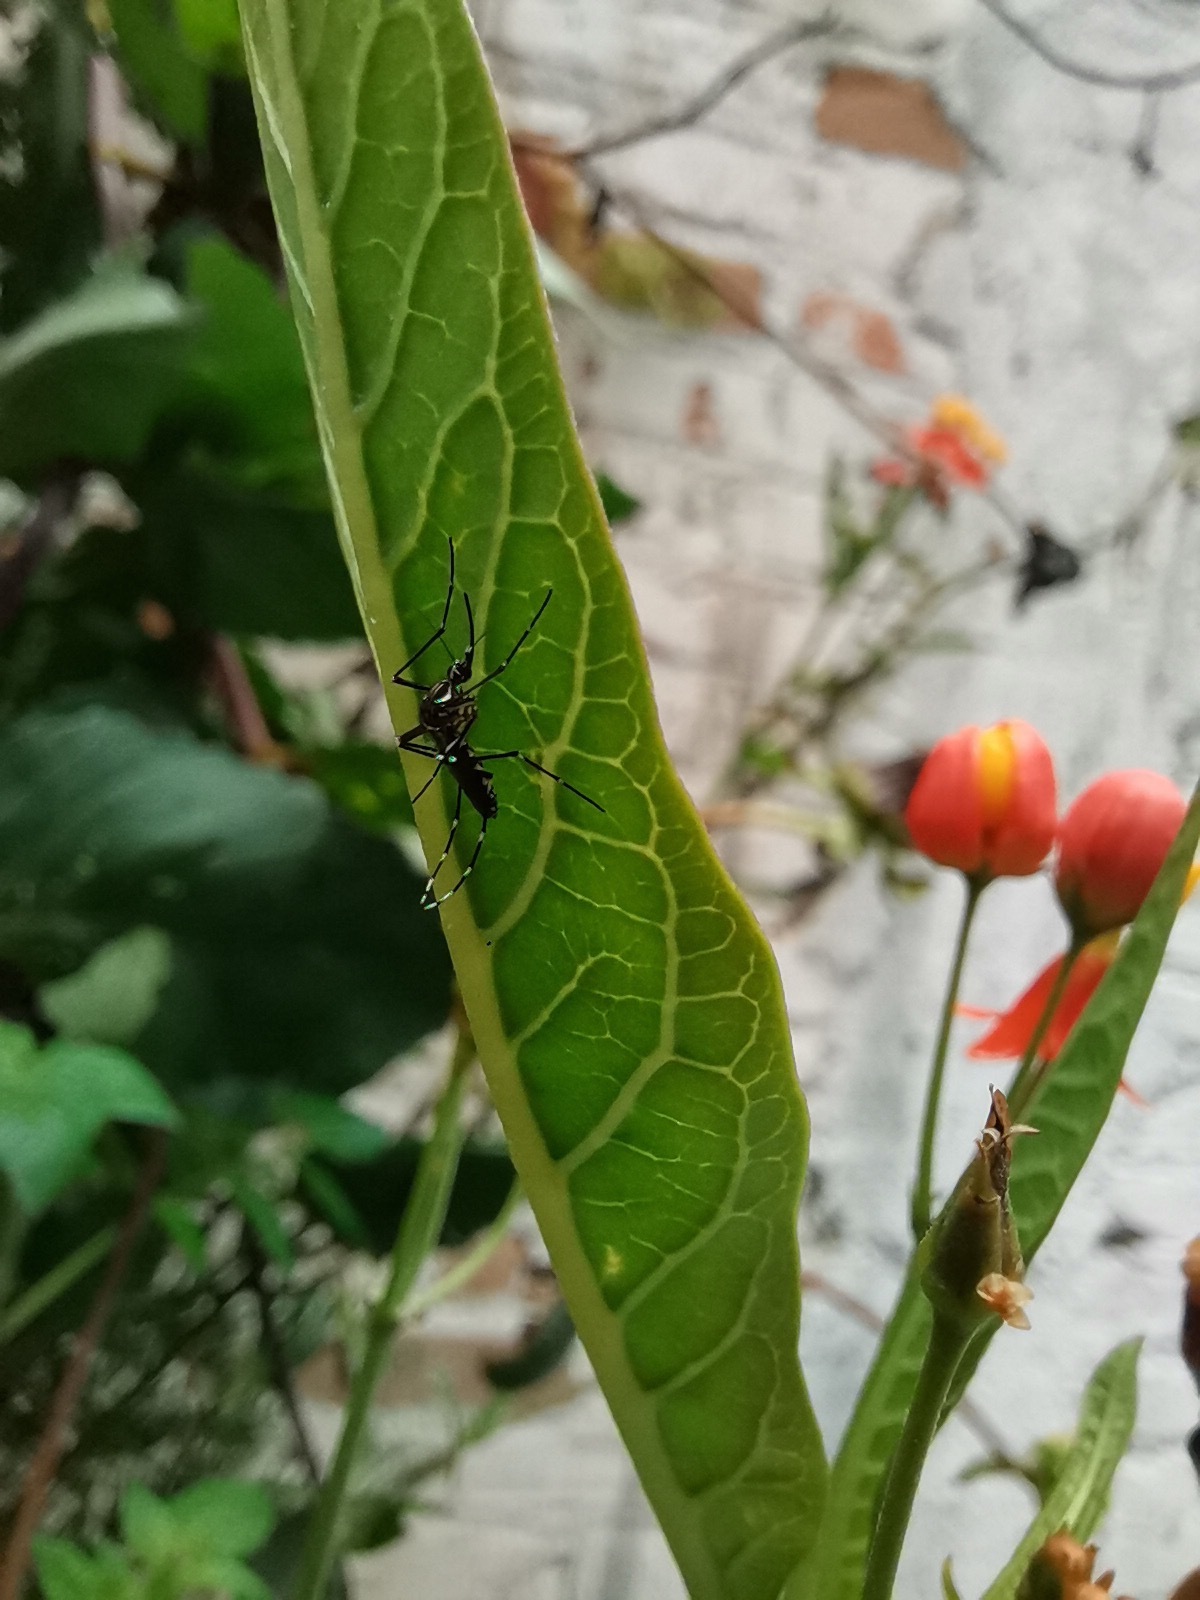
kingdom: Animalia
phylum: Arthropoda
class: Insecta
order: Diptera
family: Culicidae
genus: Aedes
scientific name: Aedes aegypti
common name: Yellow fever mosquito
